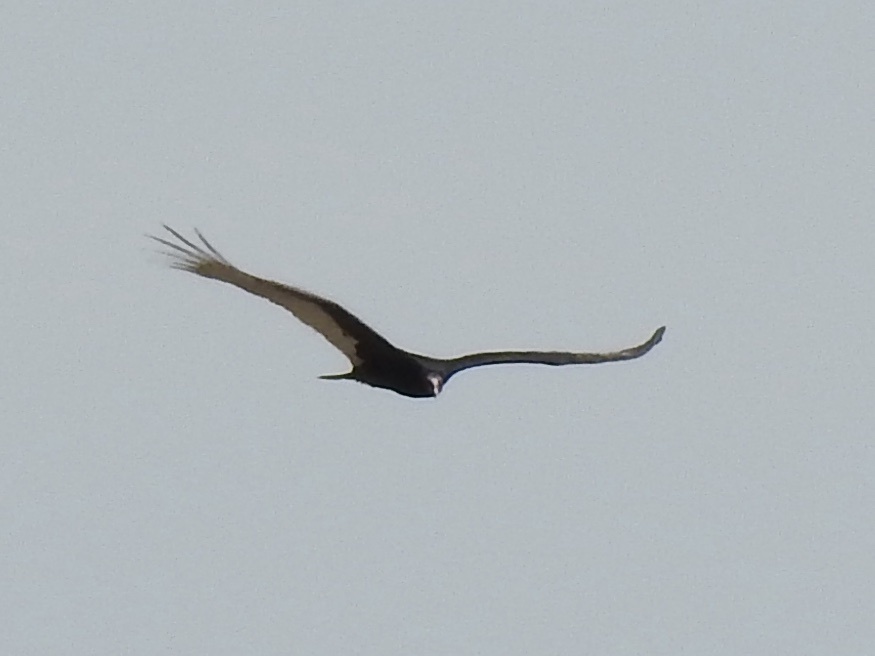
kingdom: Animalia
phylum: Chordata
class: Aves
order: Accipitriformes
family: Cathartidae
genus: Cathartes
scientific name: Cathartes aura
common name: Turkey vulture
